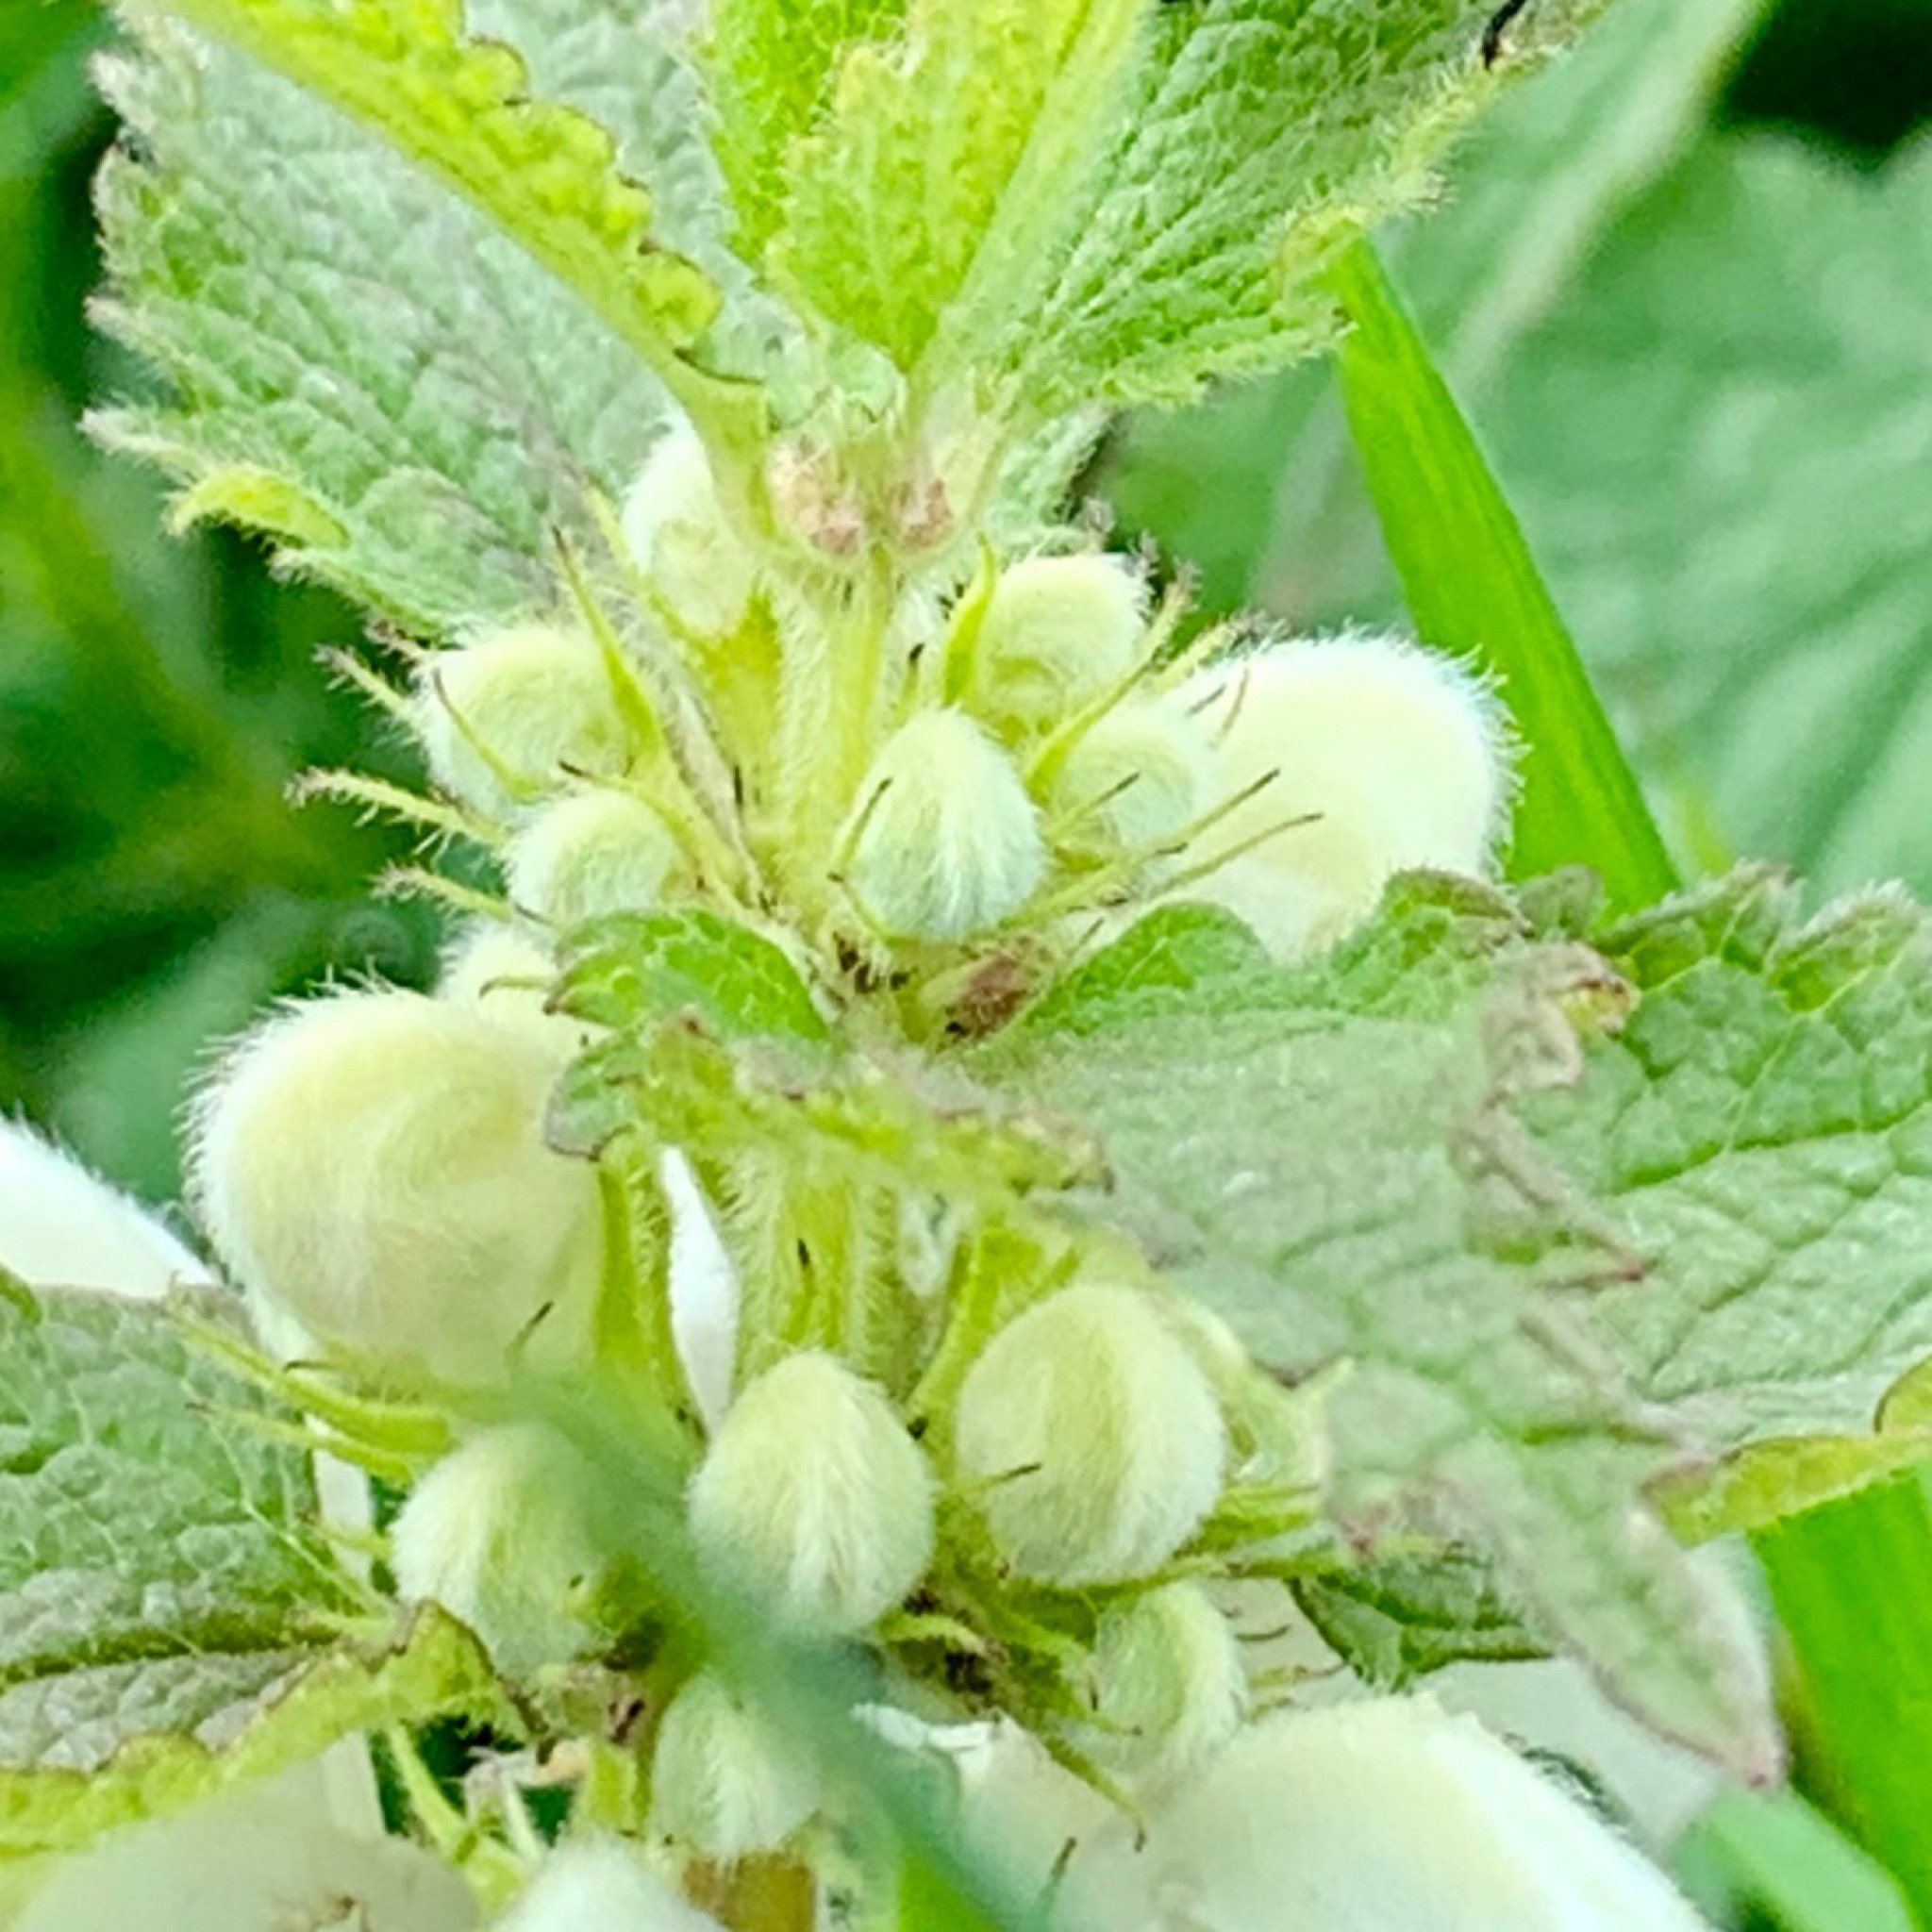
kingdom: Plantae
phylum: Tracheophyta
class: Magnoliopsida
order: Lamiales
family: Lamiaceae
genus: Lamium
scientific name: Lamium album
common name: White dead-nettle
